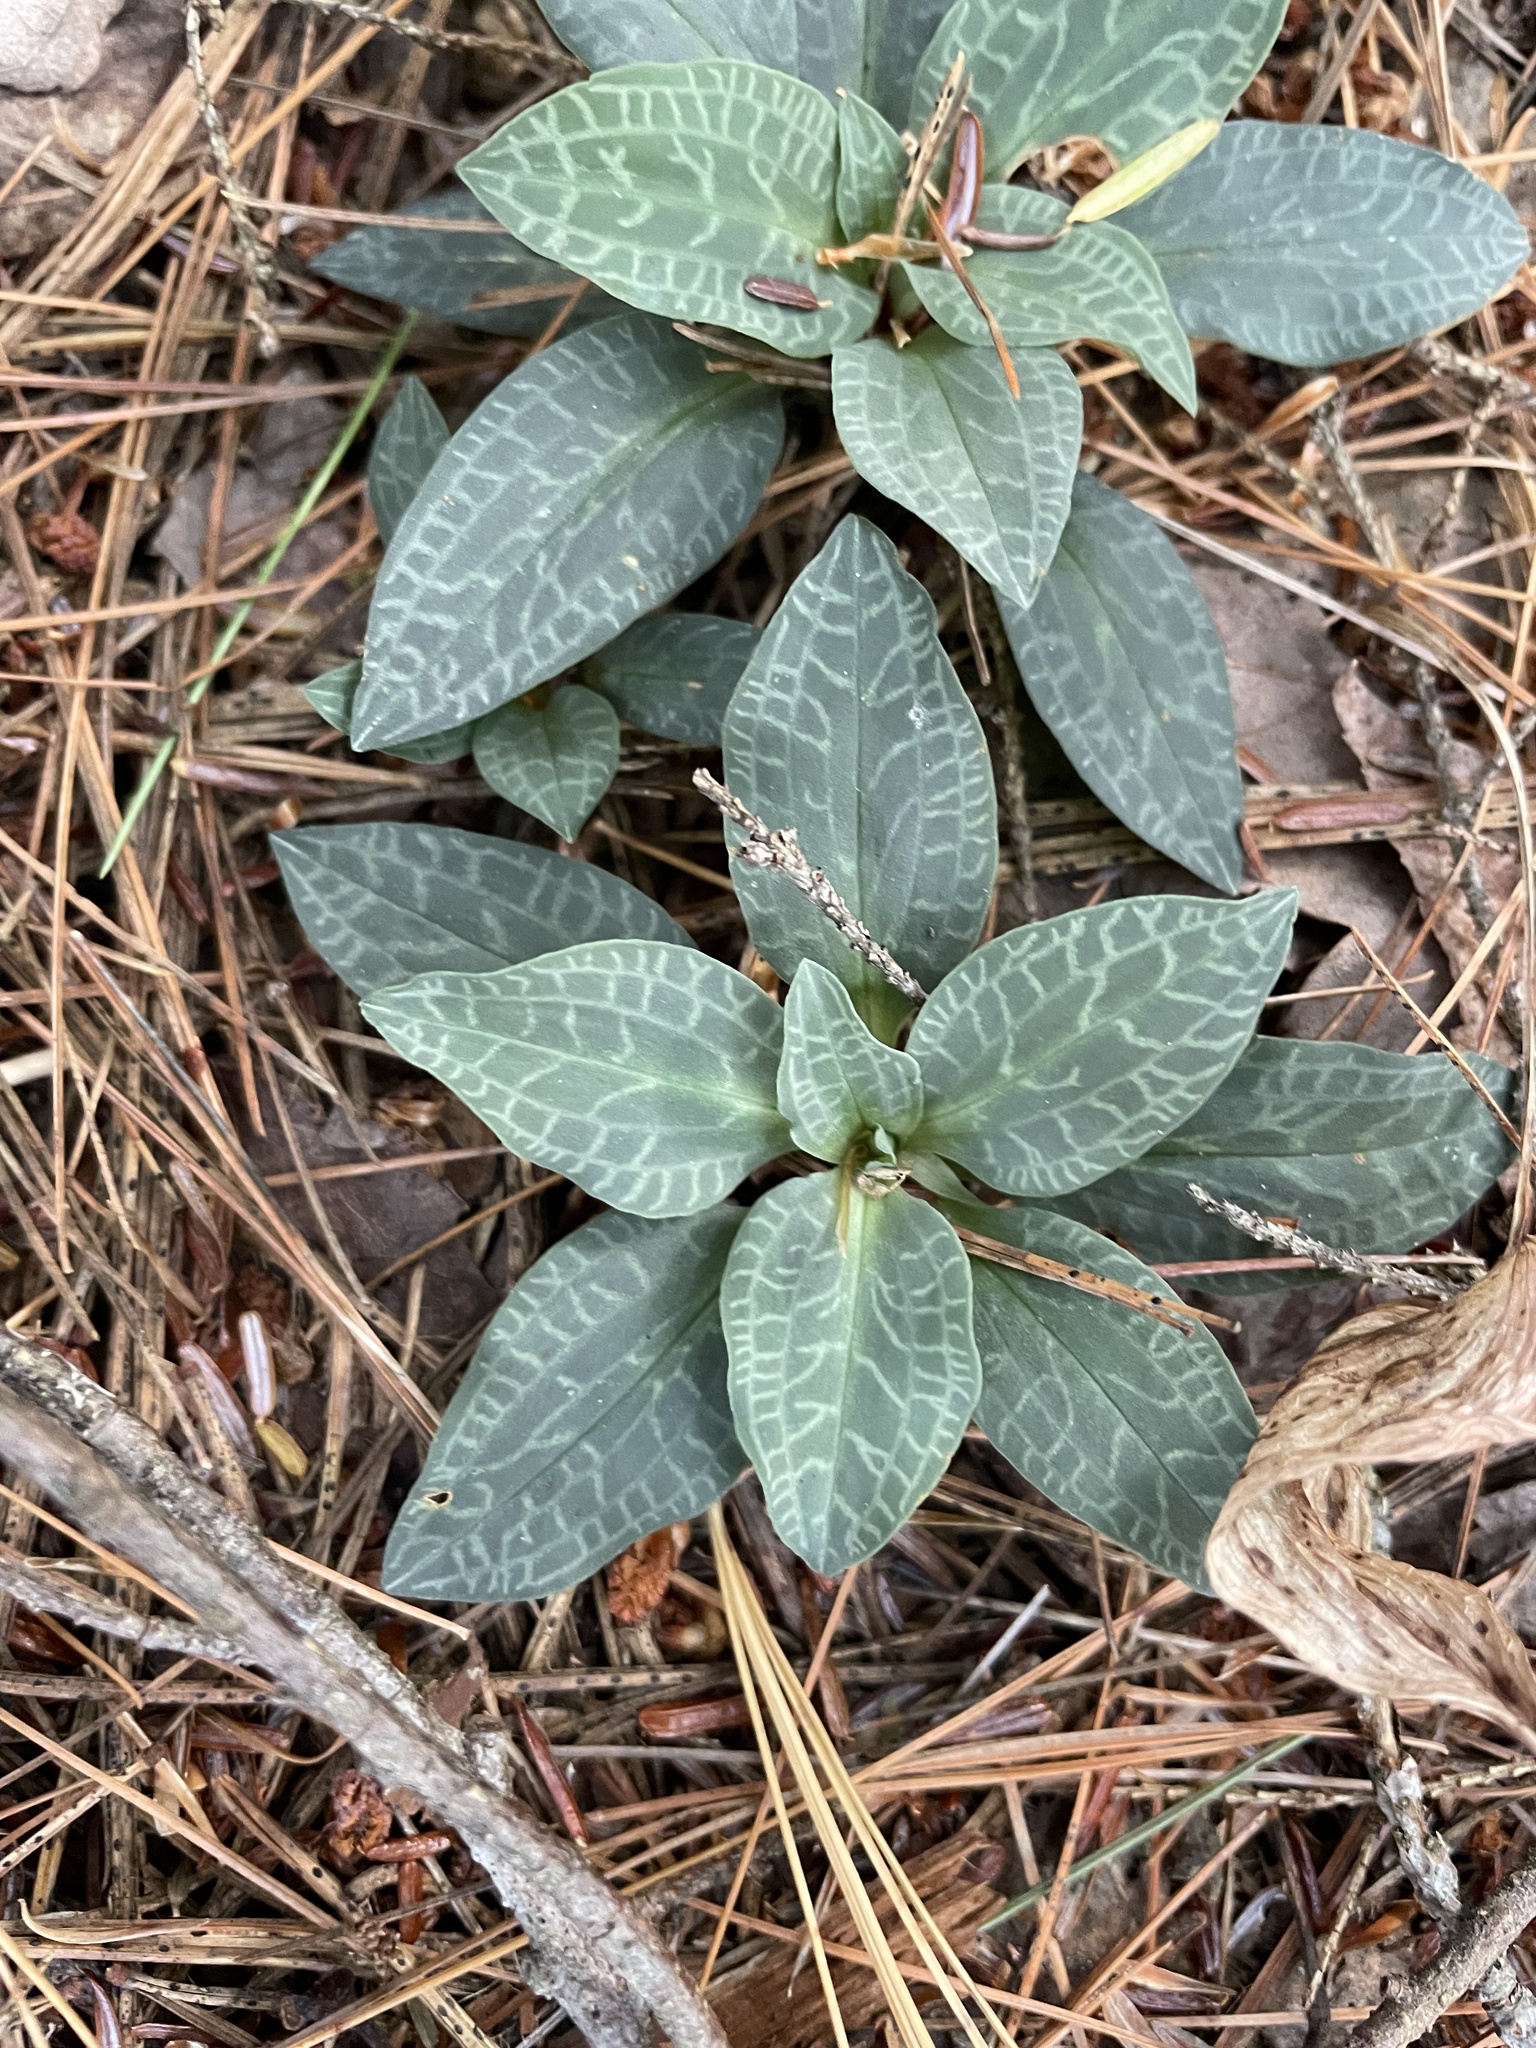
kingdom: Plantae
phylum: Tracheophyta
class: Liliopsida
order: Asparagales
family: Orchidaceae
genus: Goodyera
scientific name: Goodyera tesselata
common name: Checkered rattlesnake-plantain
